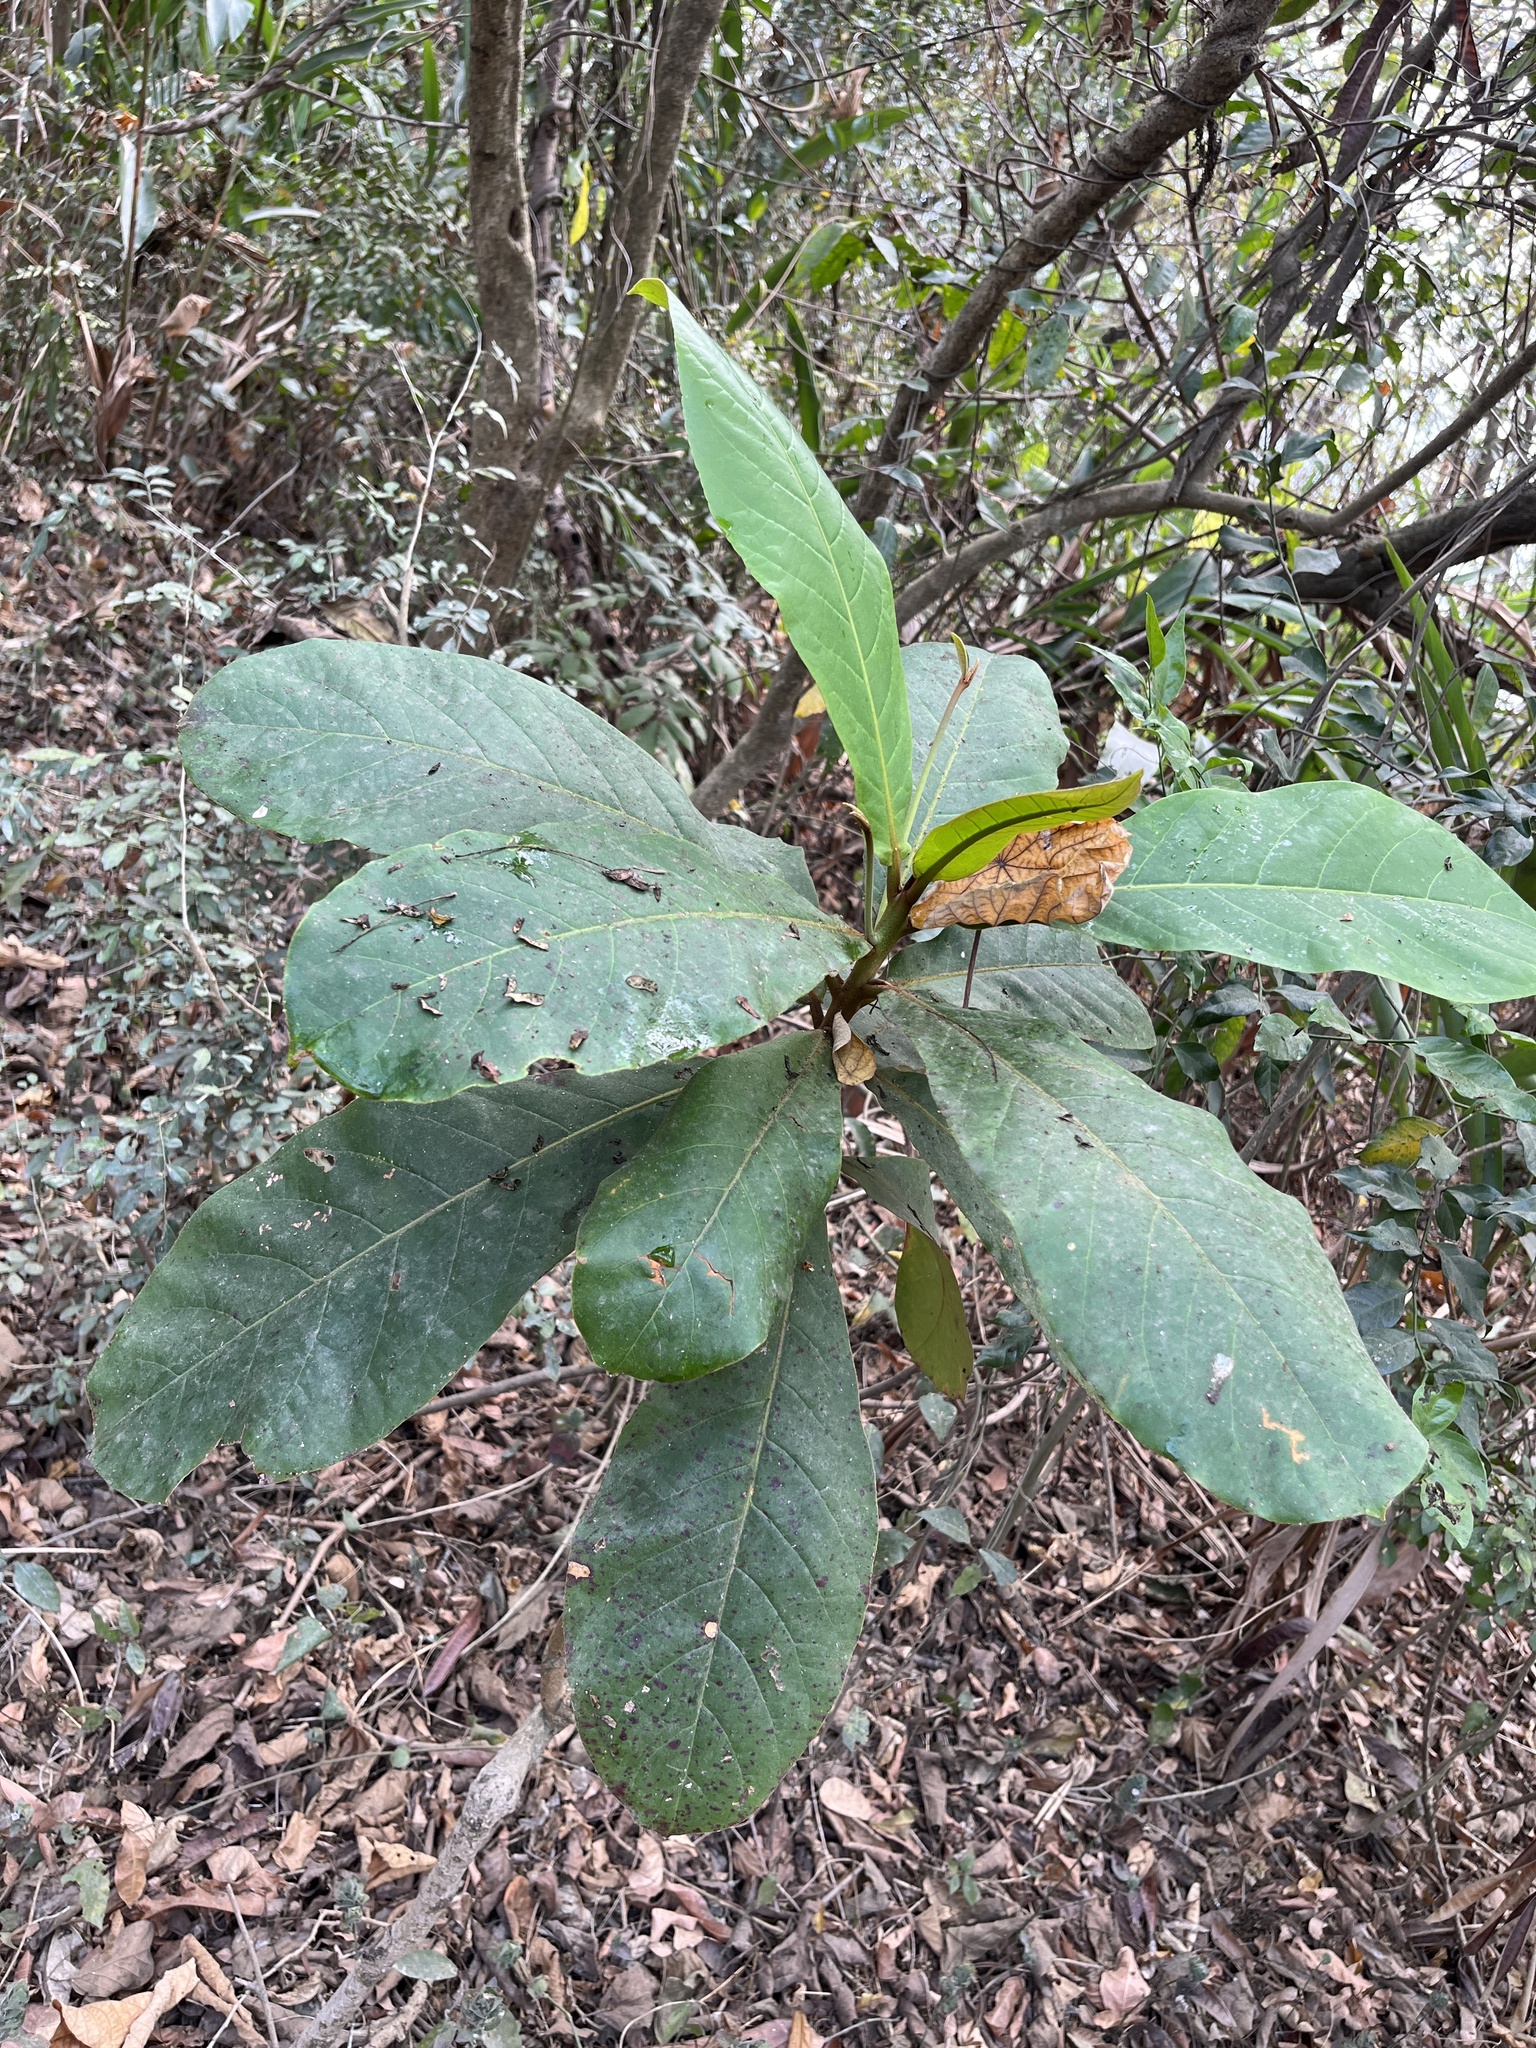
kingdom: Plantae
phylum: Tracheophyta
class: Magnoliopsida
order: Myrtales
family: Combretaceae
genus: Terminalia
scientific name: Terminalia catappa
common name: Tropical almond
